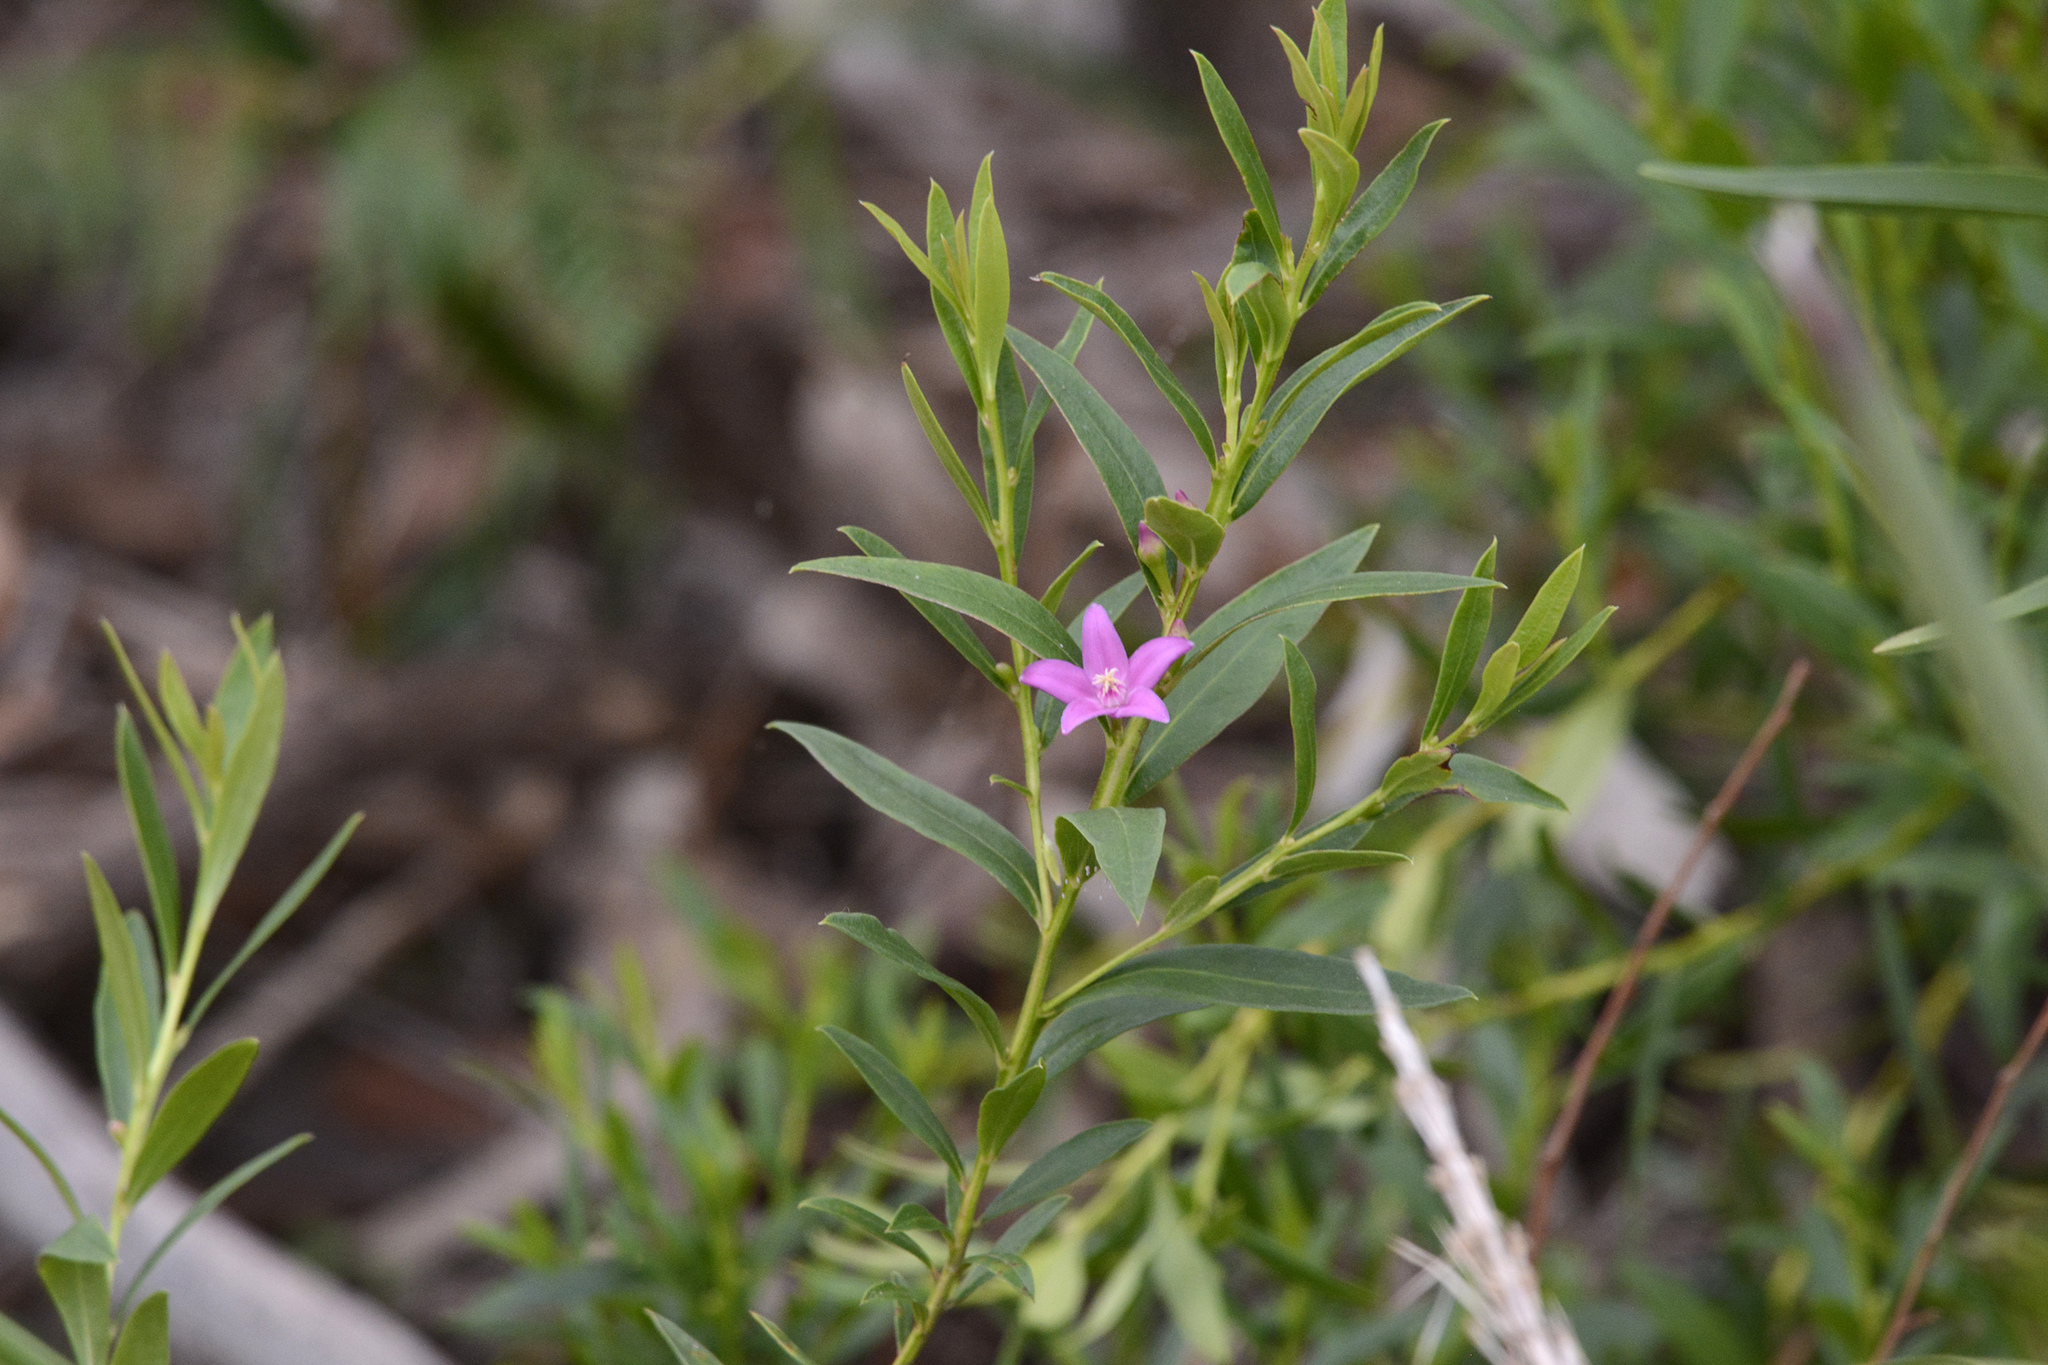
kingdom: Plantae
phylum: Tracheophyta
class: Magnoliopsida
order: Sapindales
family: Rutaceae
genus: Crowea
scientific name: Crowea saligna
